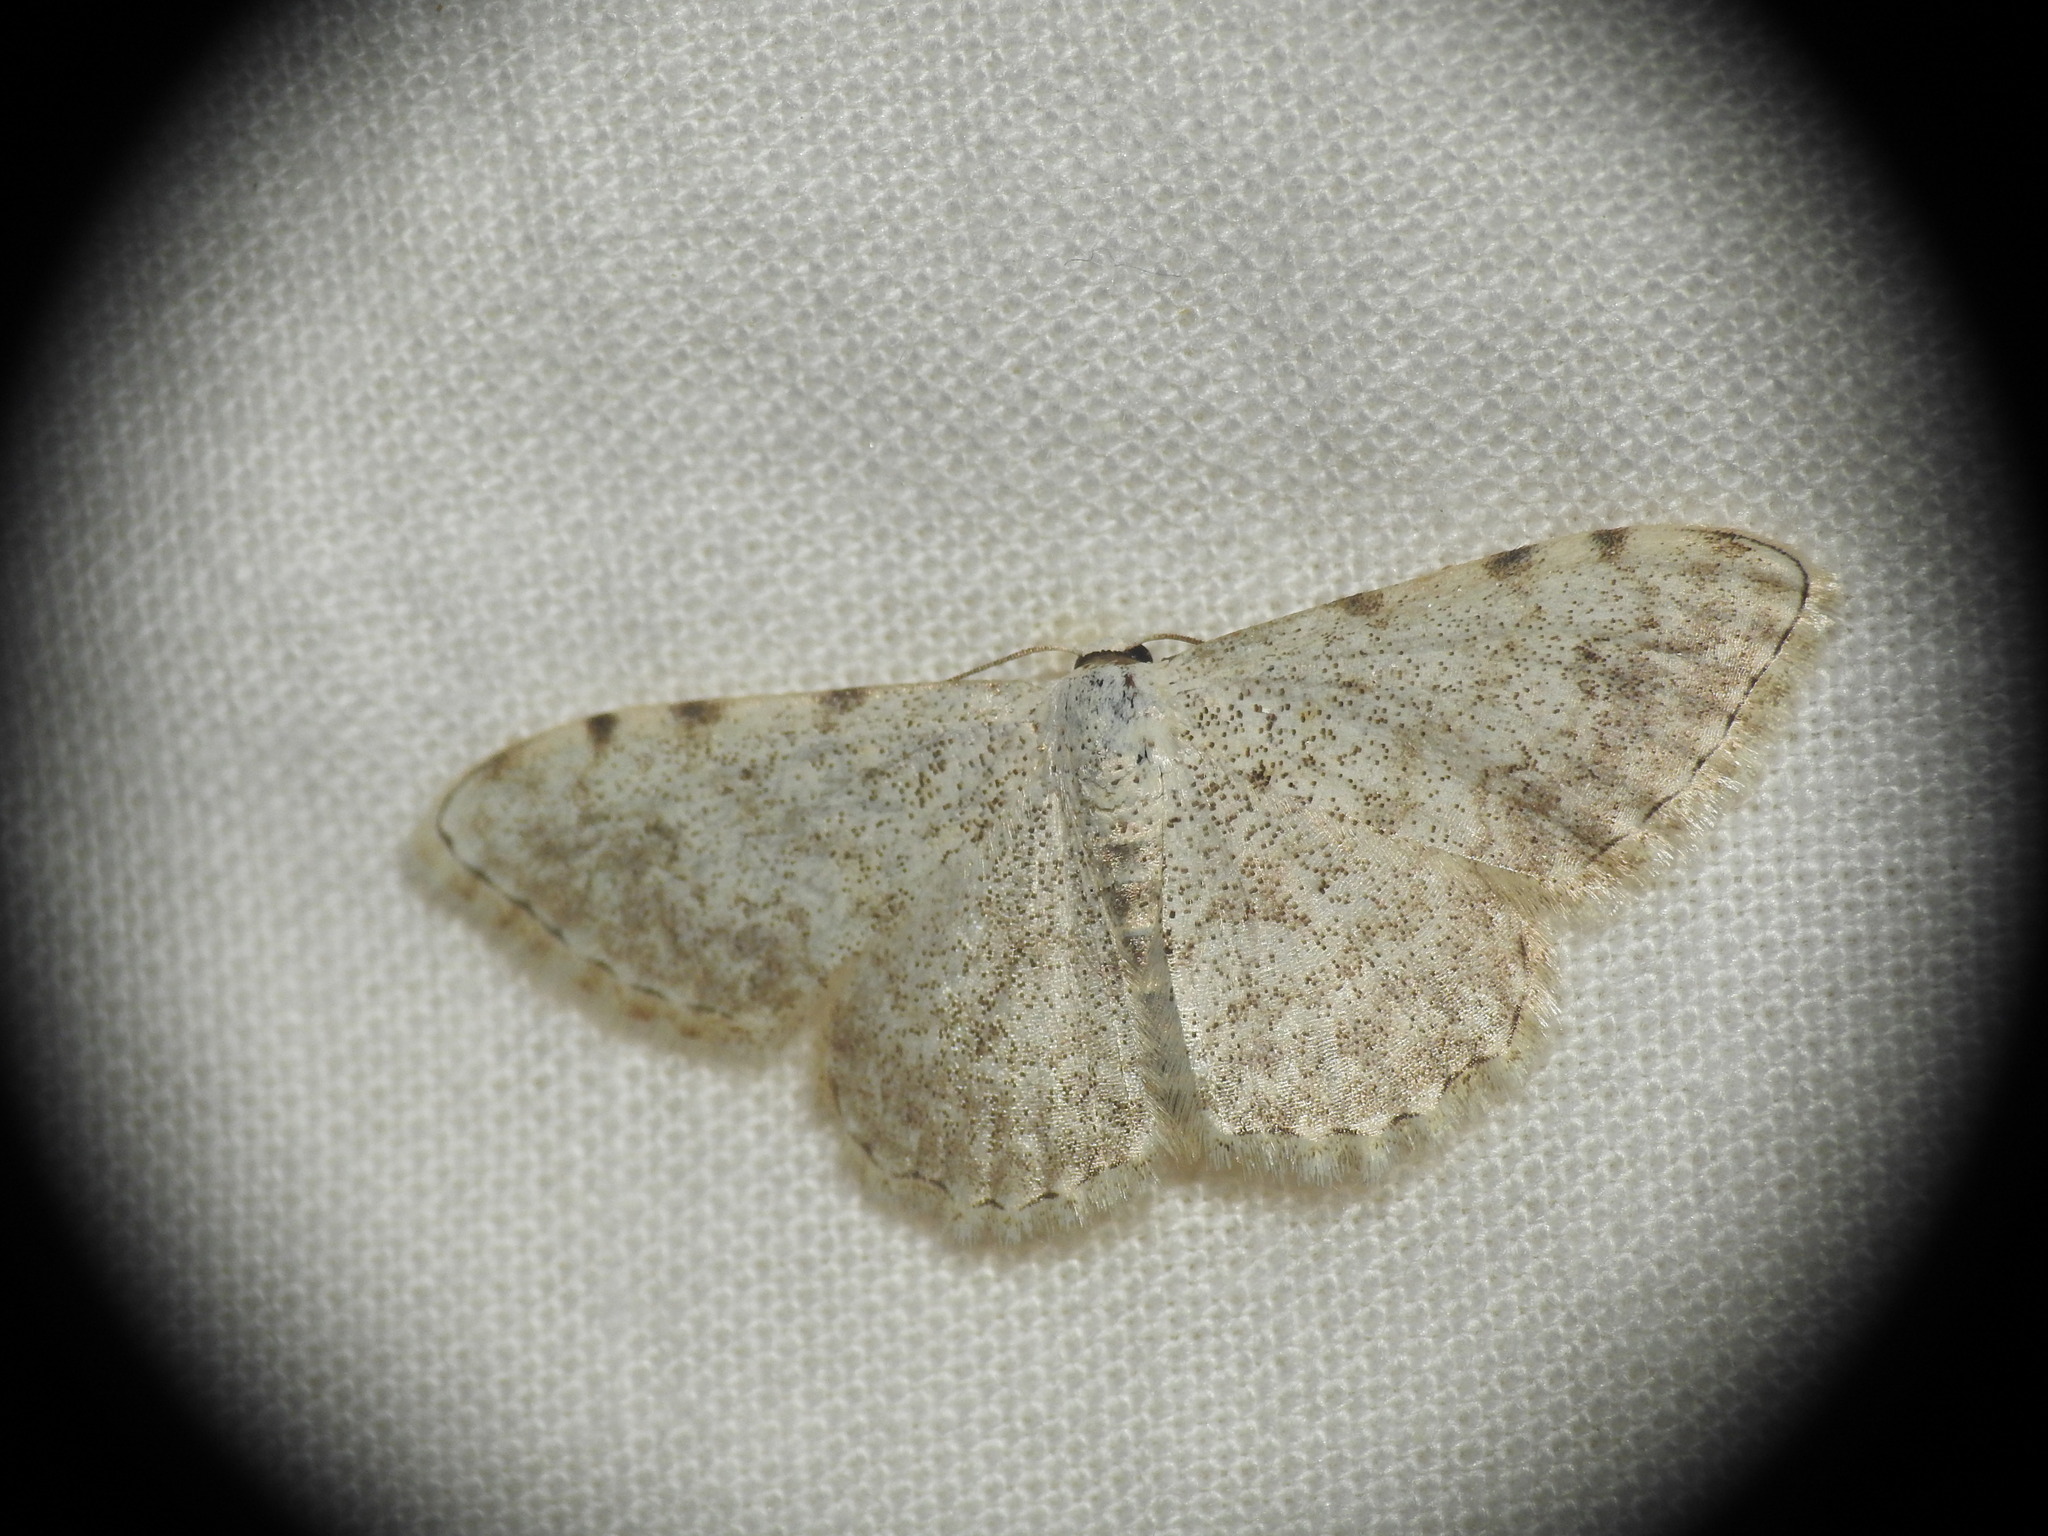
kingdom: Animalia
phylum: Arthropoda
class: Insecta
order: Lepidoptera
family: Geometridae
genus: Scopula
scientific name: Scopula submutata
